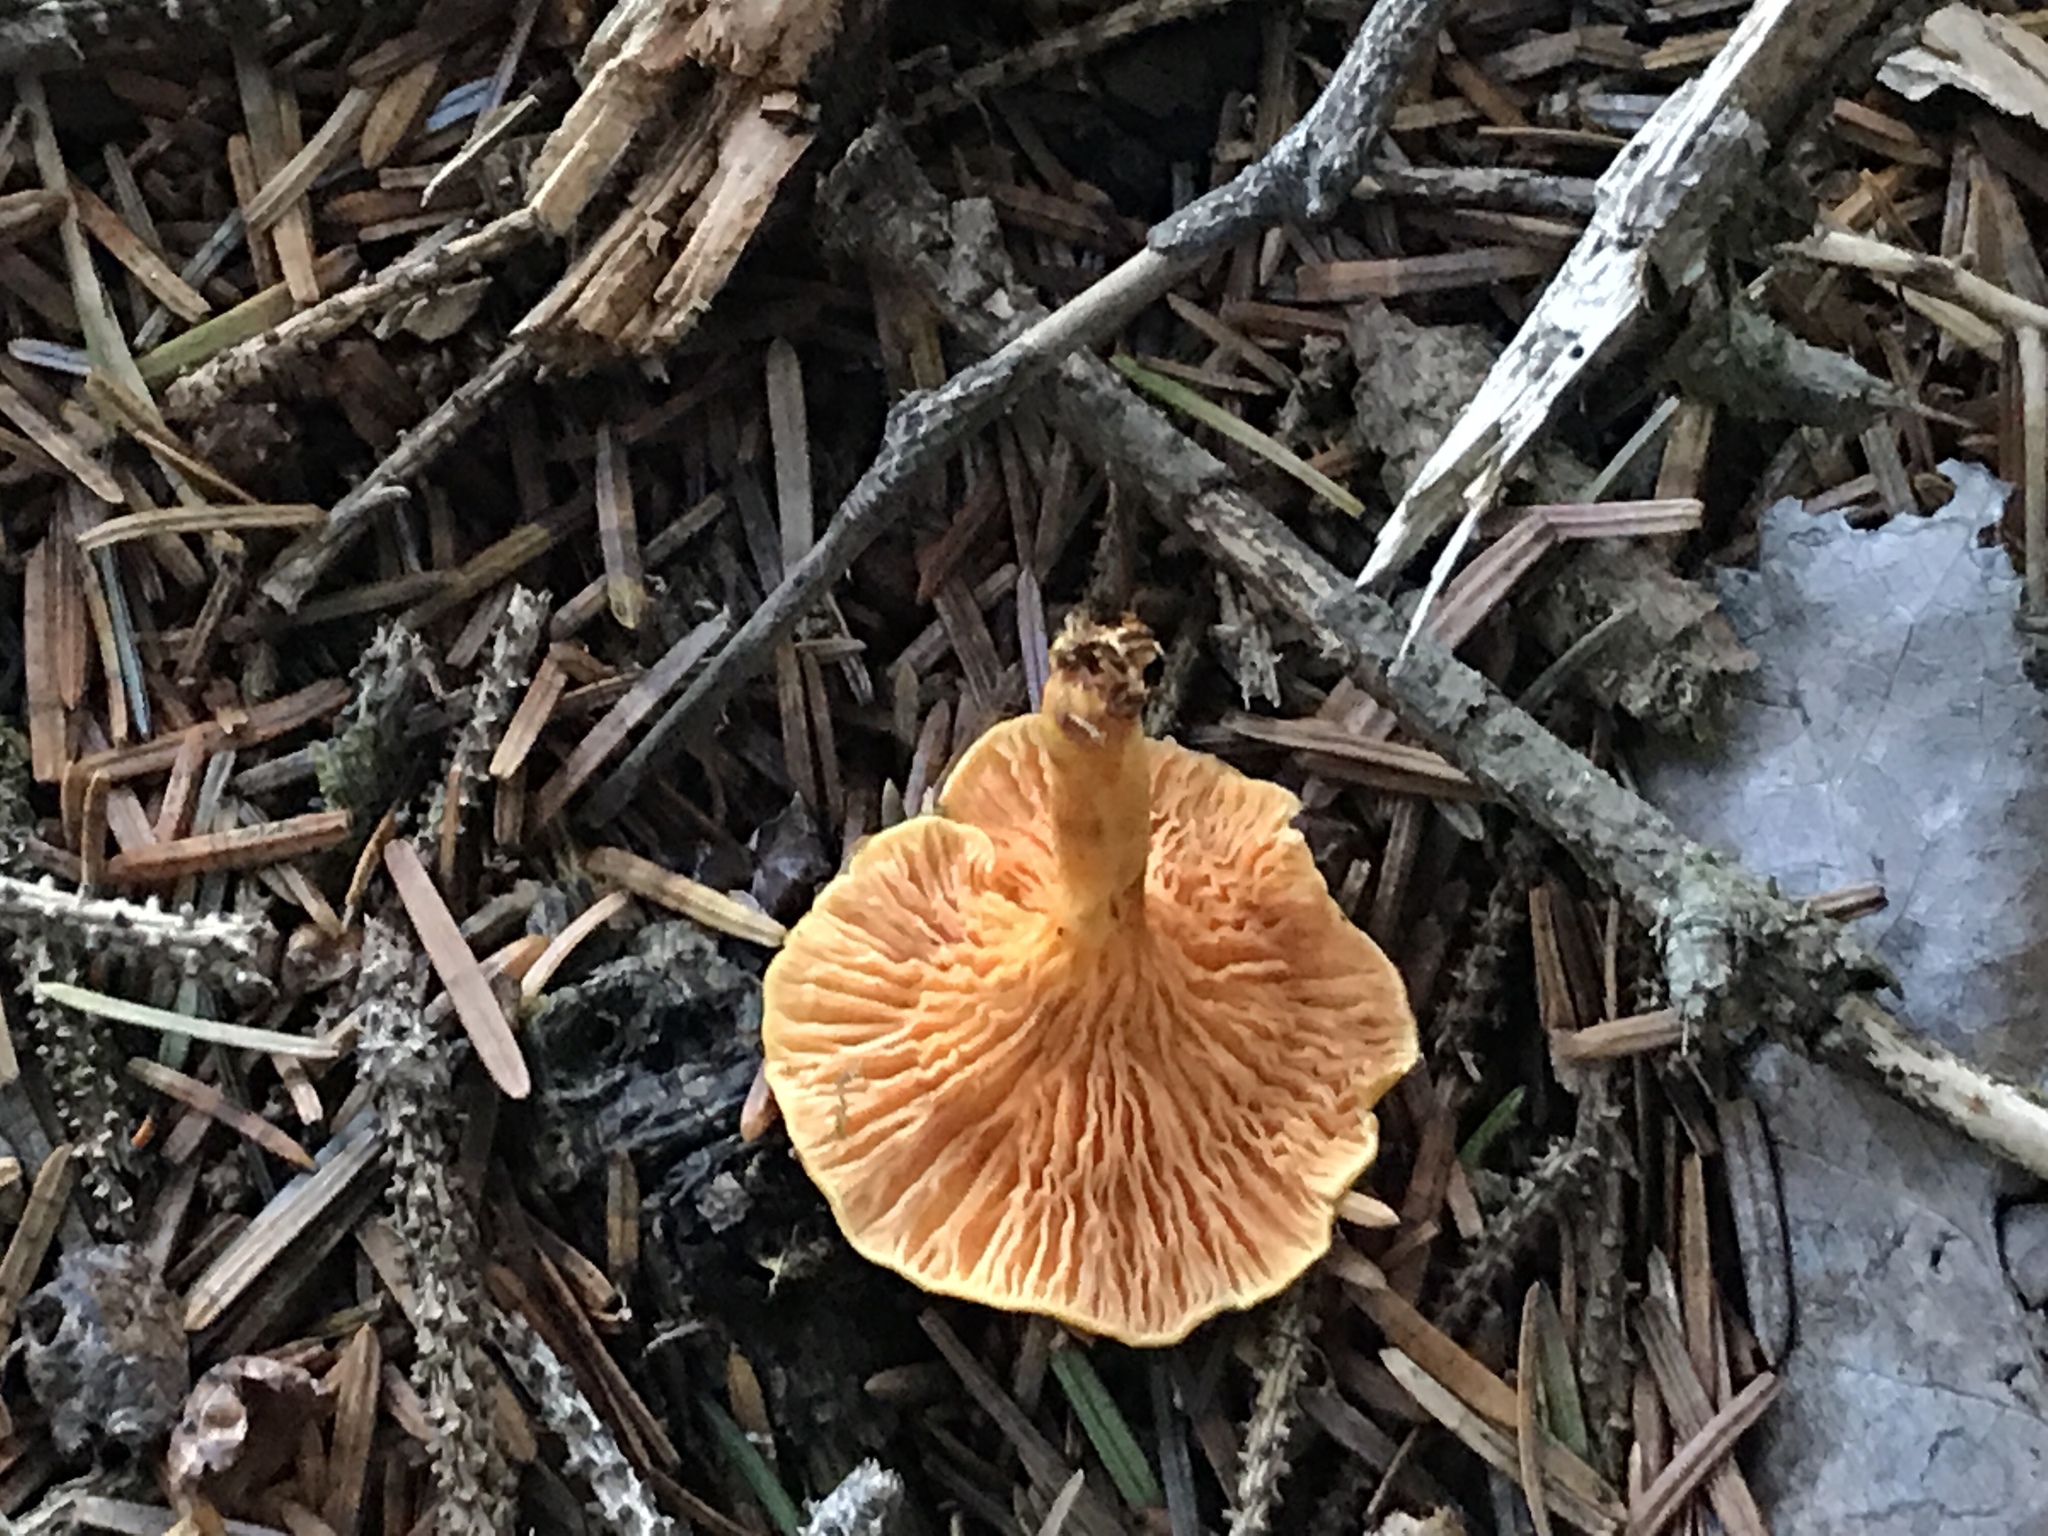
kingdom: Fungi
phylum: Basidiomycota
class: Agaricomycetes
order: Boletales
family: Hygrophoropsidaceae
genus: Hygrophoropsis
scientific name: Hygrophoropsis aurantiaca
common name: False chanterelle
